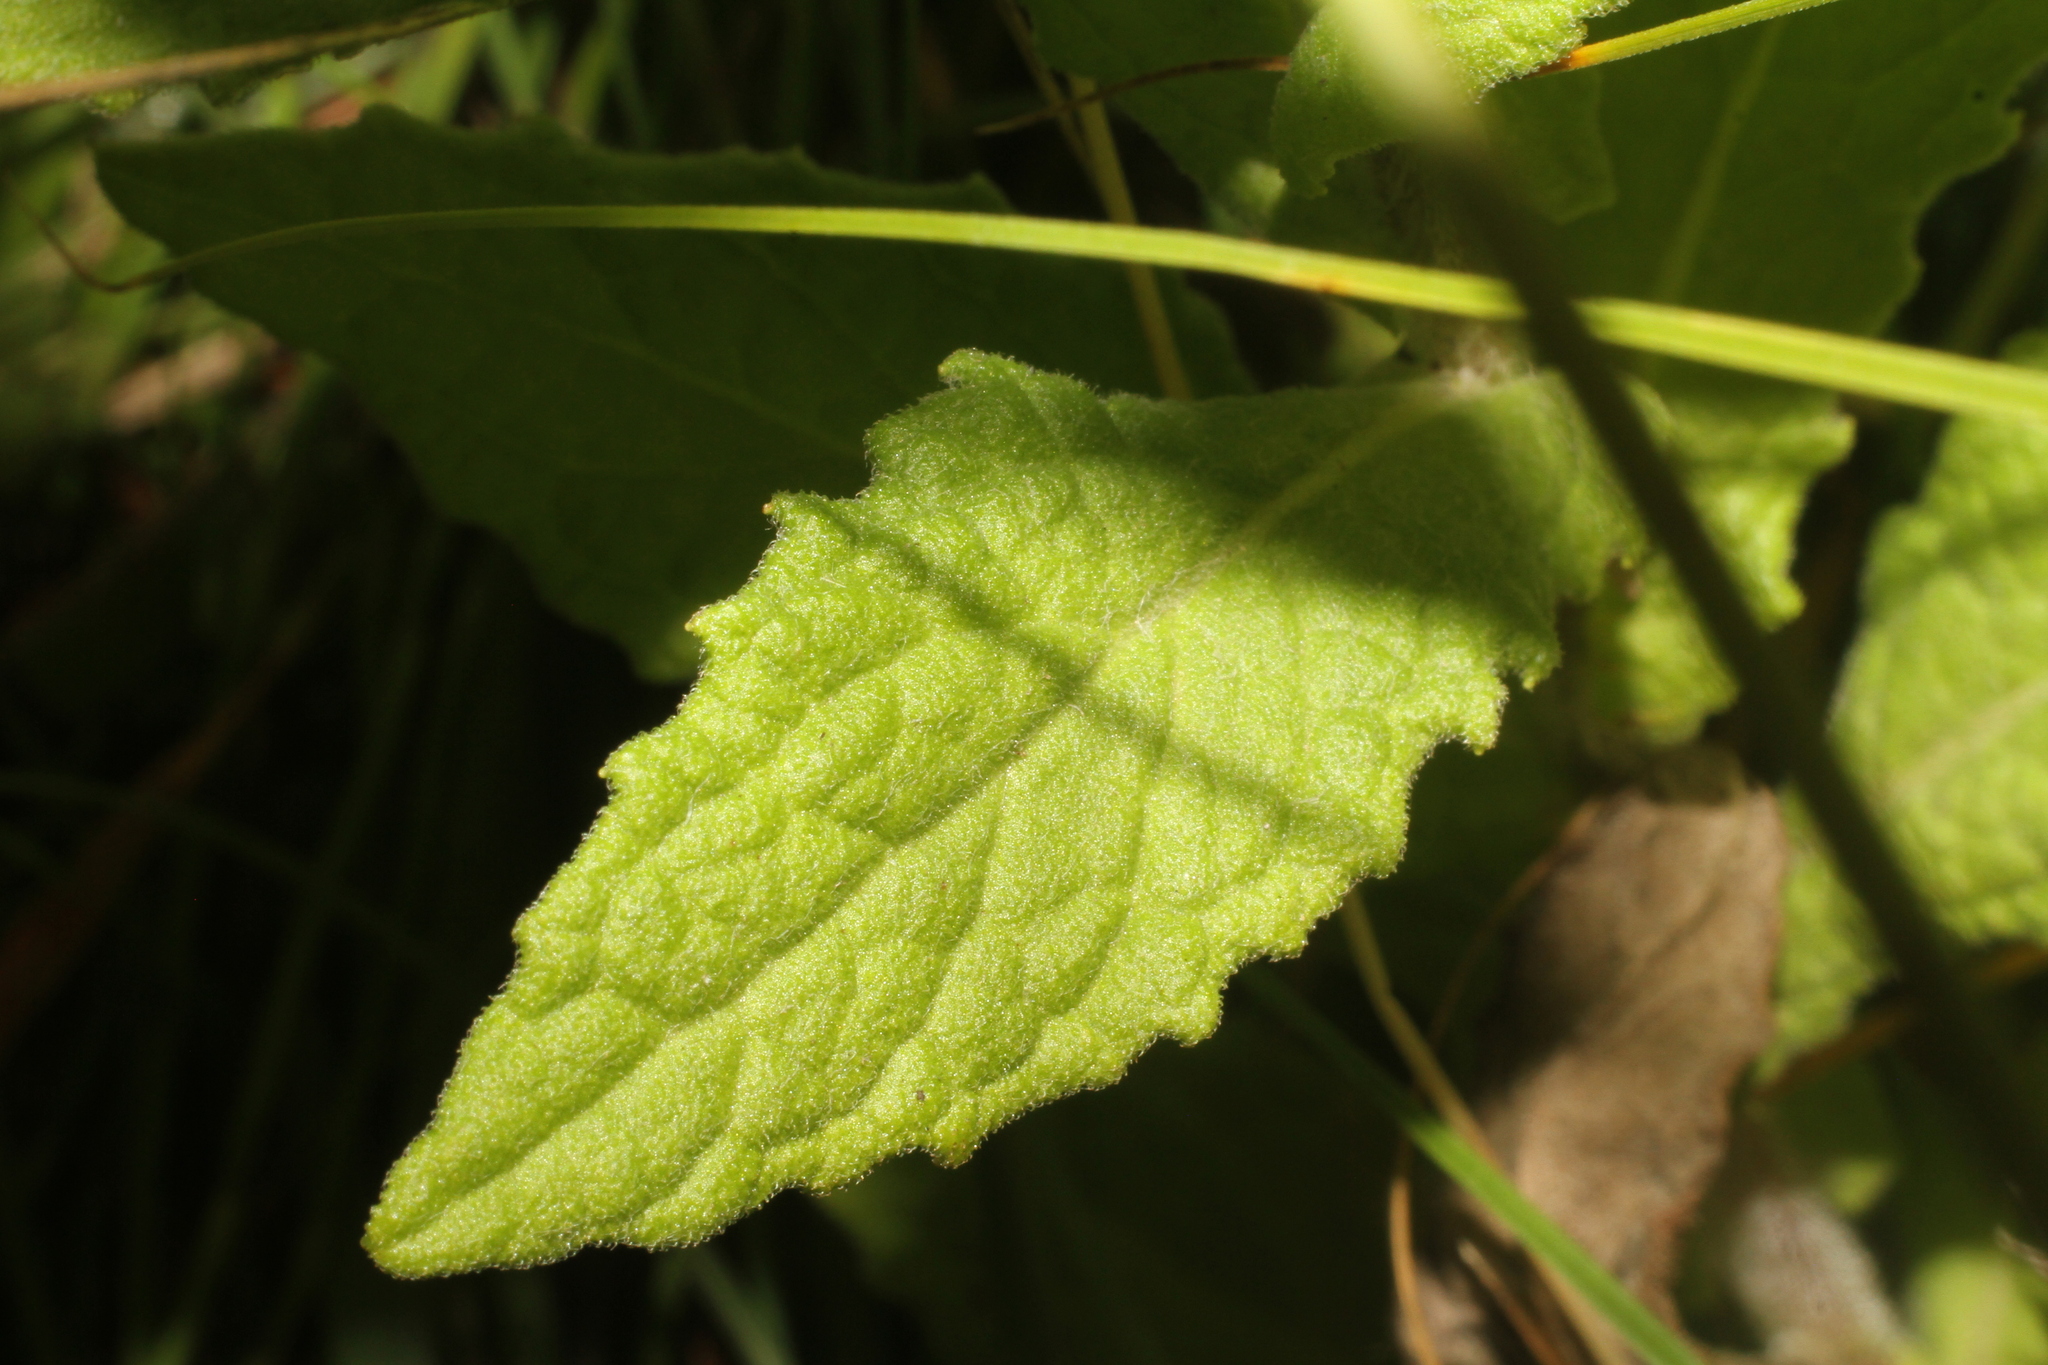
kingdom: Plantae
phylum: Tracheophyta
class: Magnoliopsida
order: Asterales
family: Asteraceae
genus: Pulicaria
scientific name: Pulicaria dysenterica
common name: Common fleabane
